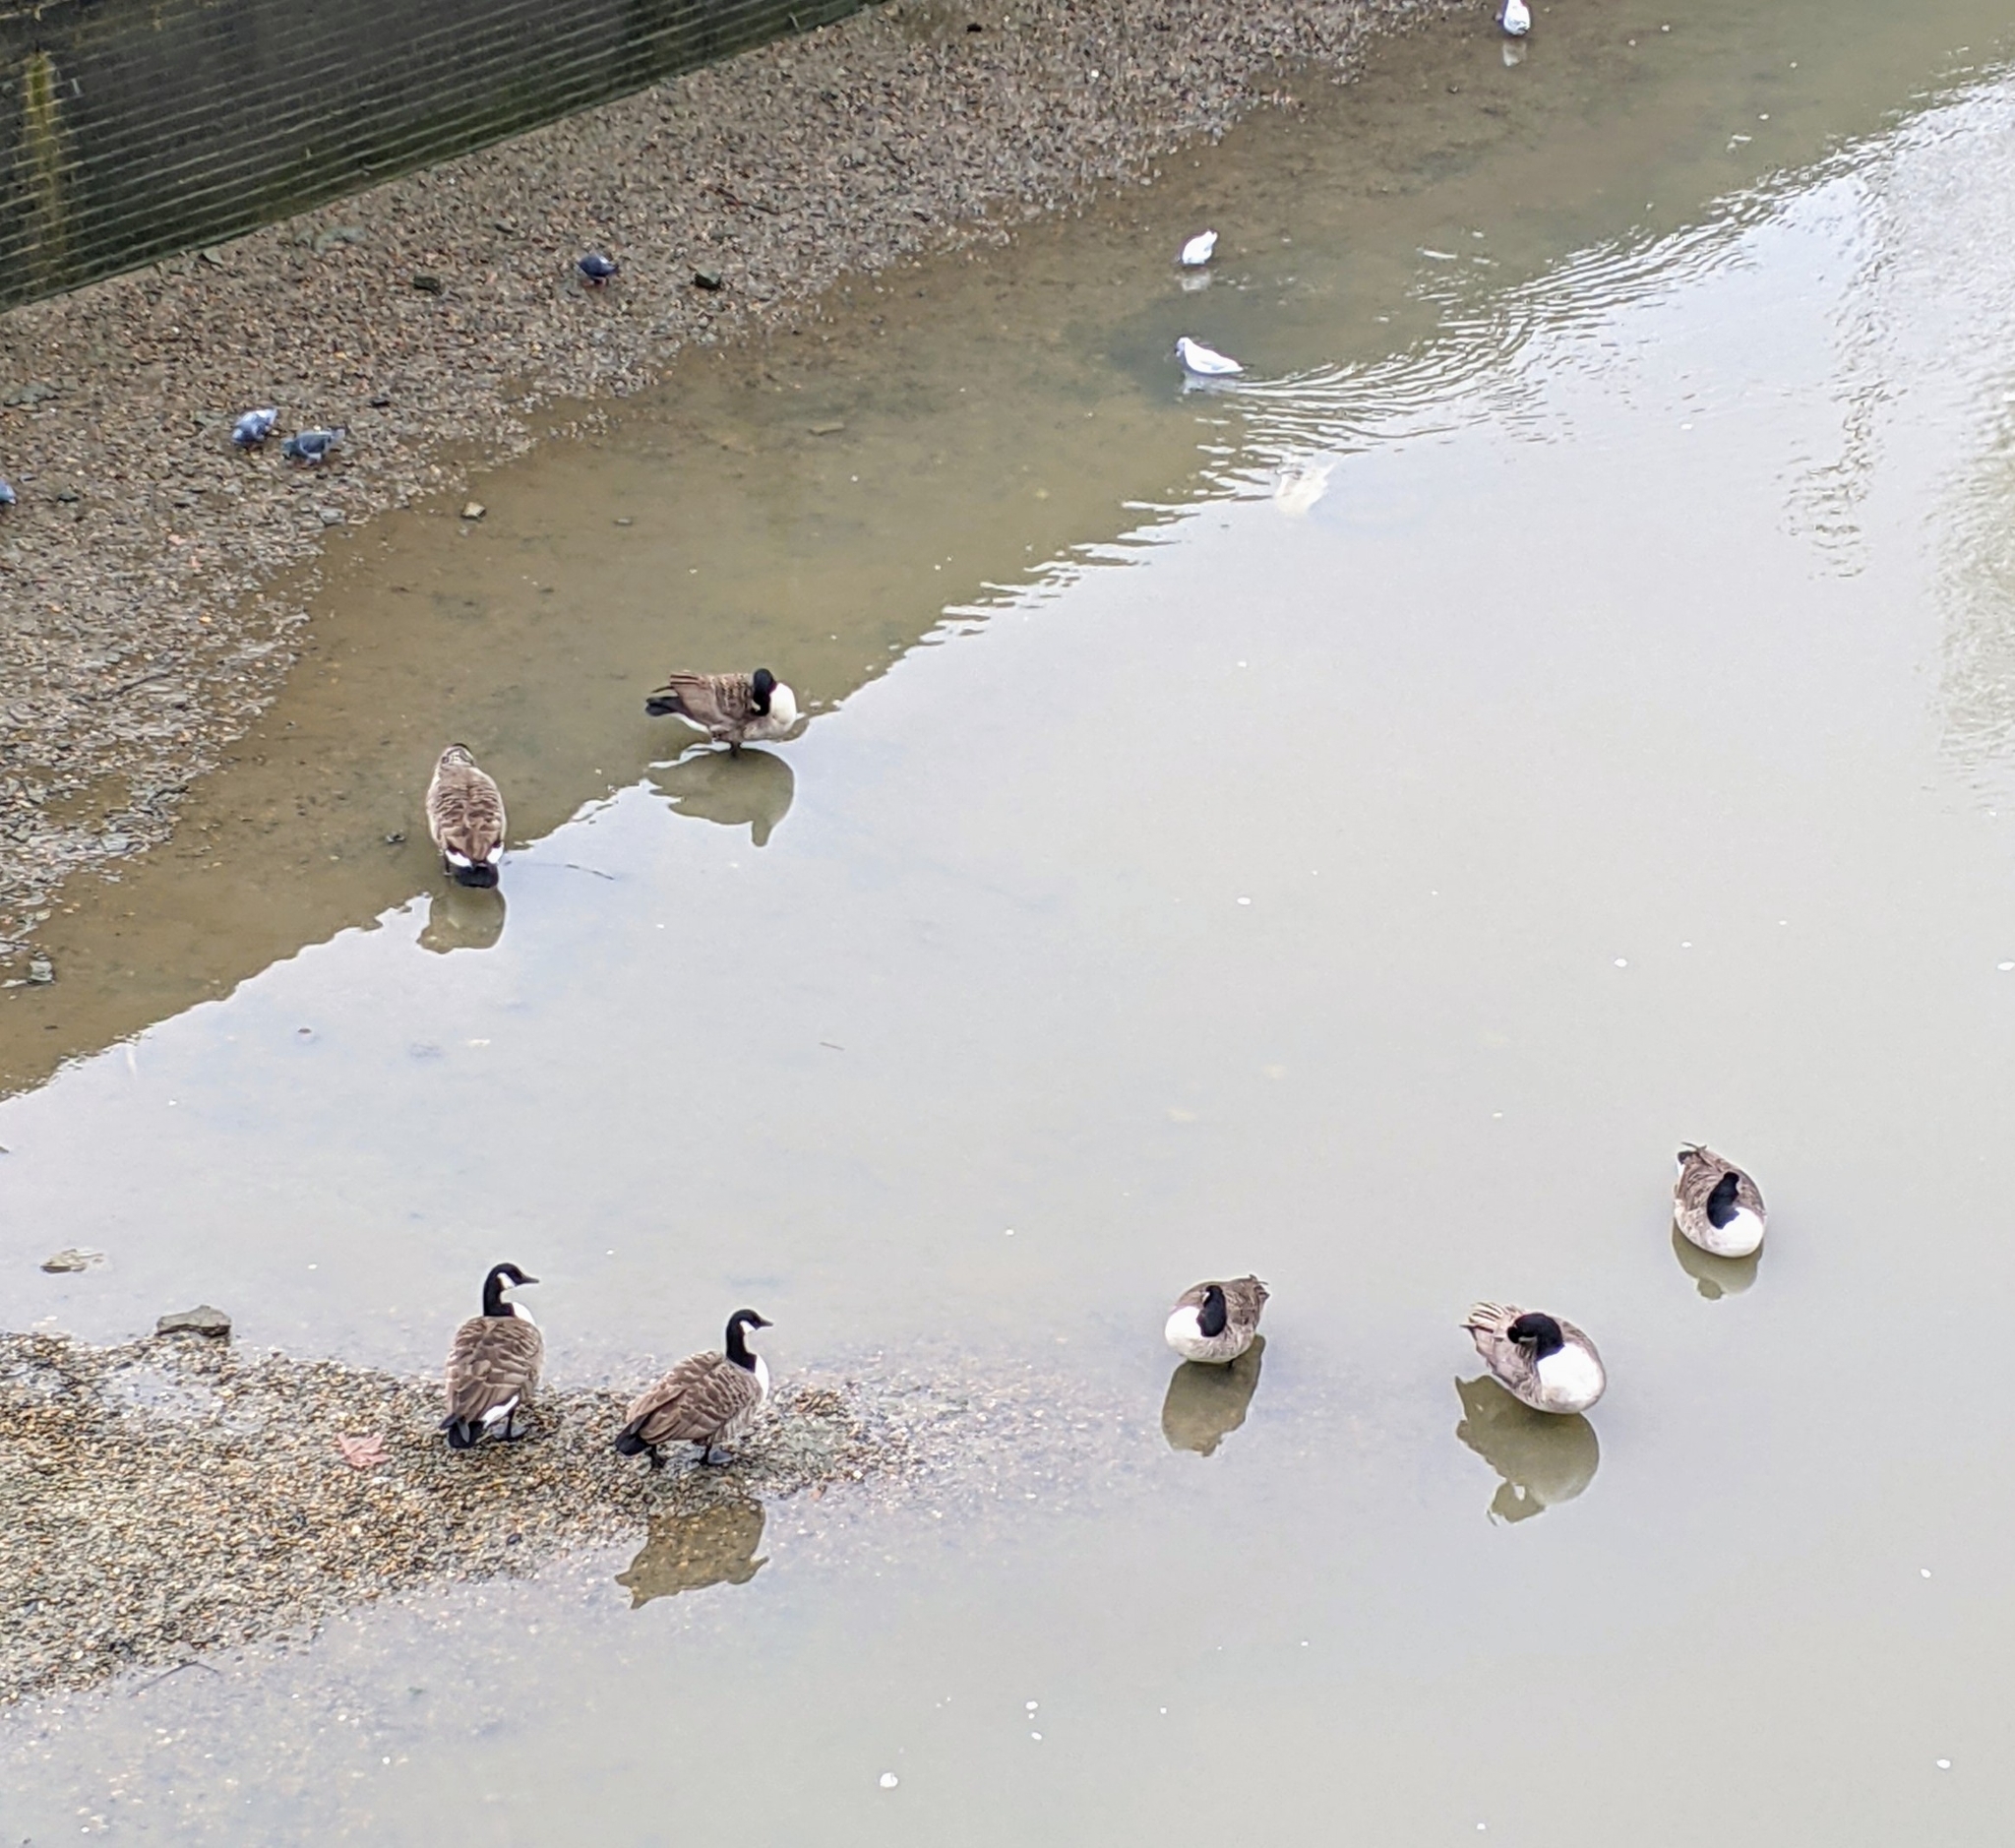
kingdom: Animalia
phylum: Chordata
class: Aves
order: Anseriformes
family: Anatidae
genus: Branta
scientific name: Branta canadensis
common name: Canada goose
